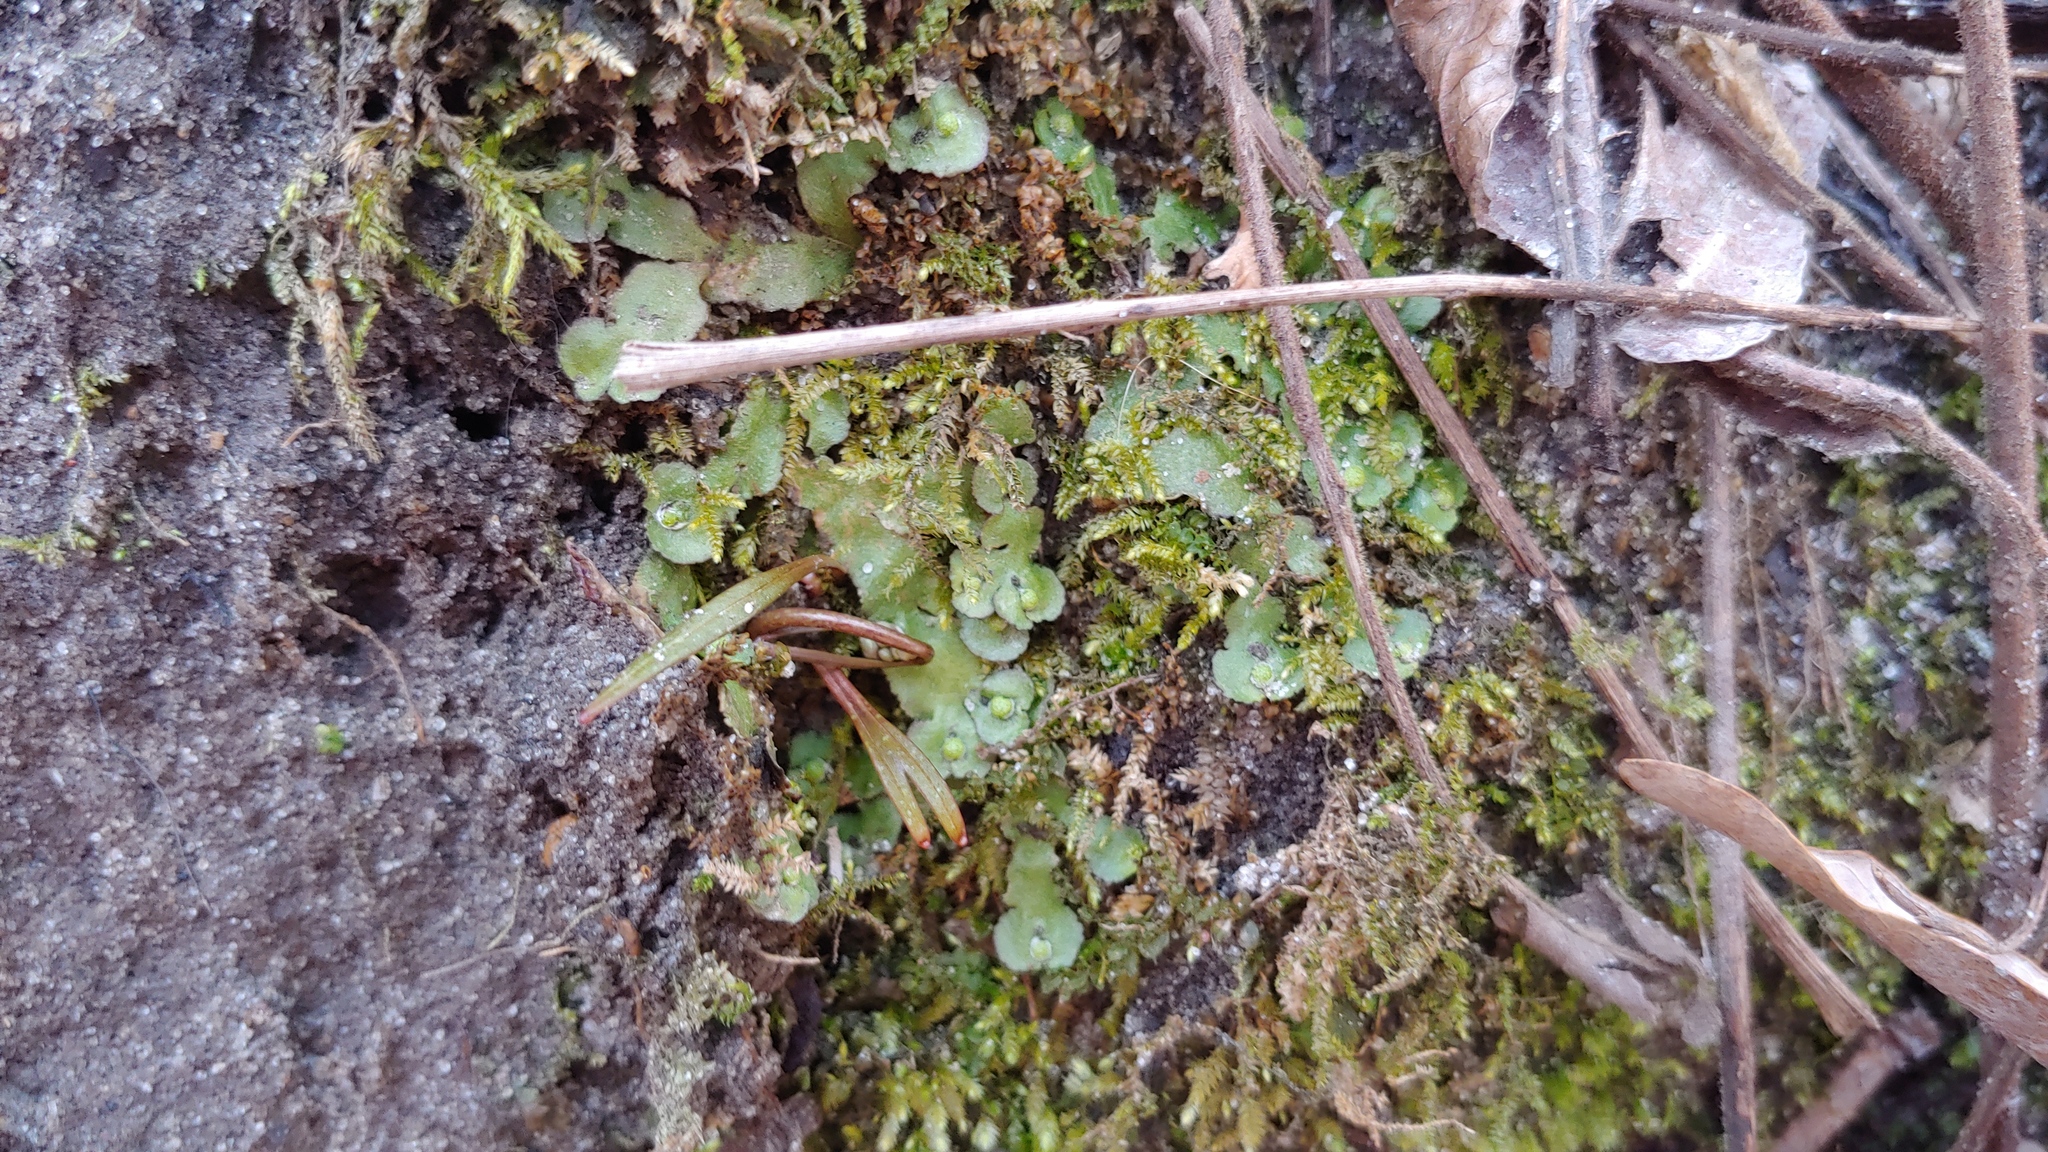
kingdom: Plantae
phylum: Marchantiophyta
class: Marchantiopsida
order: Marchantiales
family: Aytoniaceae
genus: Reboulia
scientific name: Reboulia hemisphaerica
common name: Purple-margined liverwort
